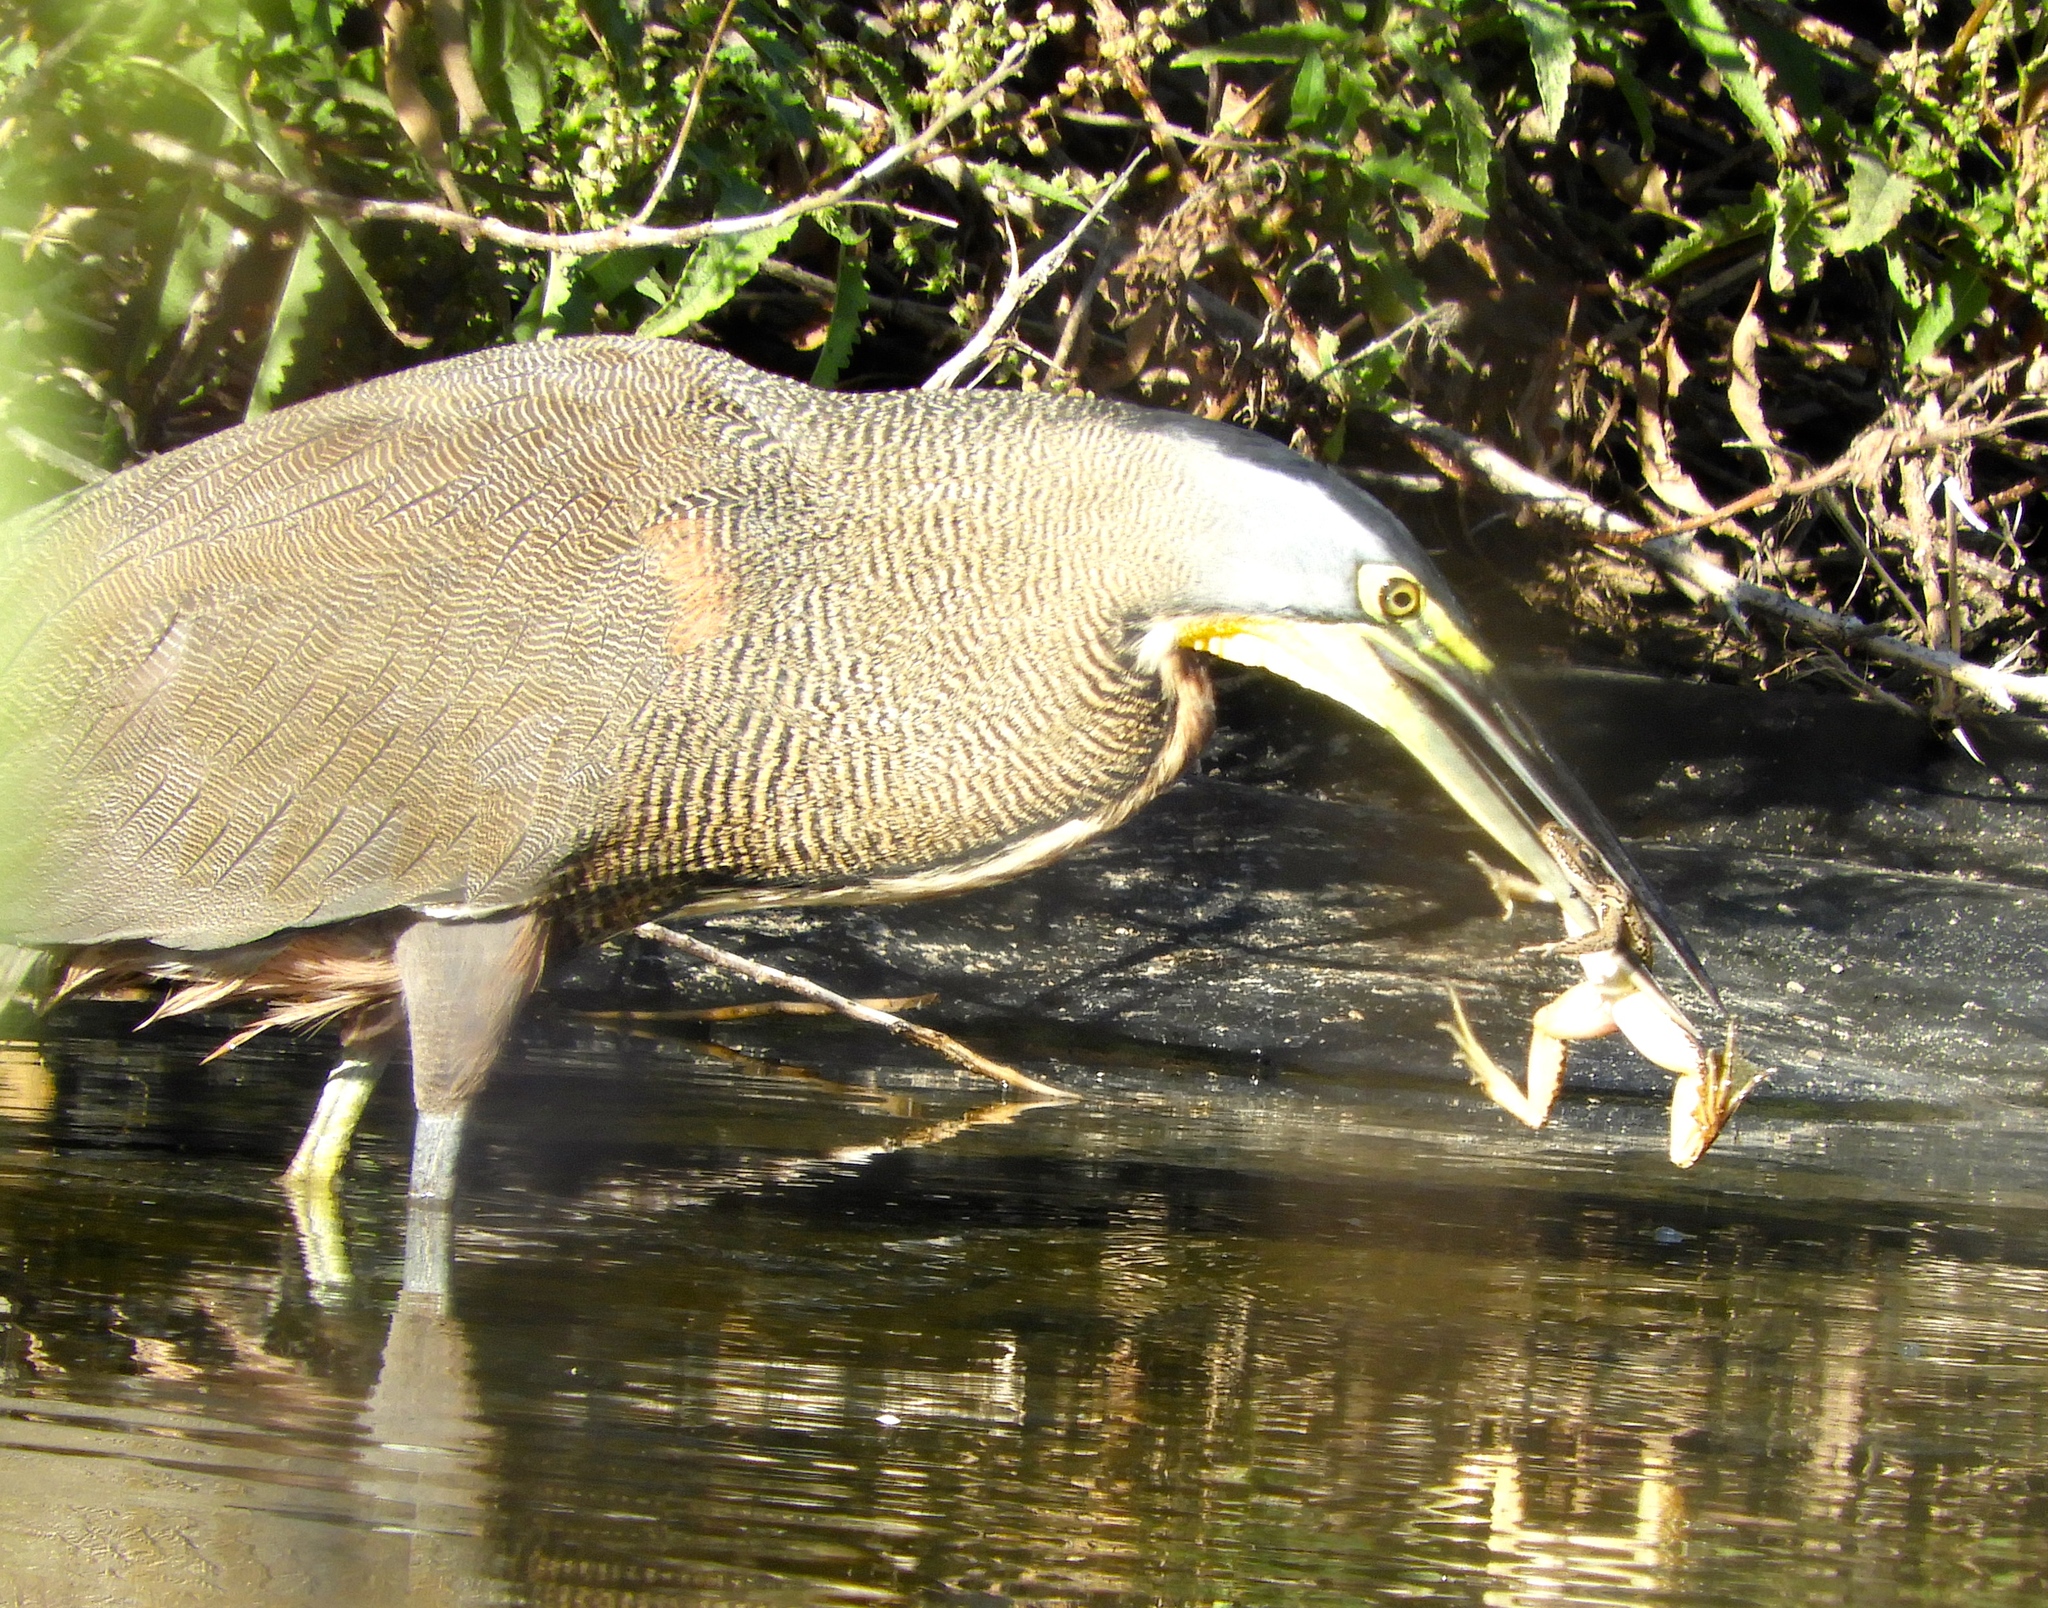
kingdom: Animalia
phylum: Chordata
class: Aves
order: Pelecaniformes
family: Ardeidae
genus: Tigrisoma
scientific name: Tigrisoma mexicanum
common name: Bare-throated tiger-heron
